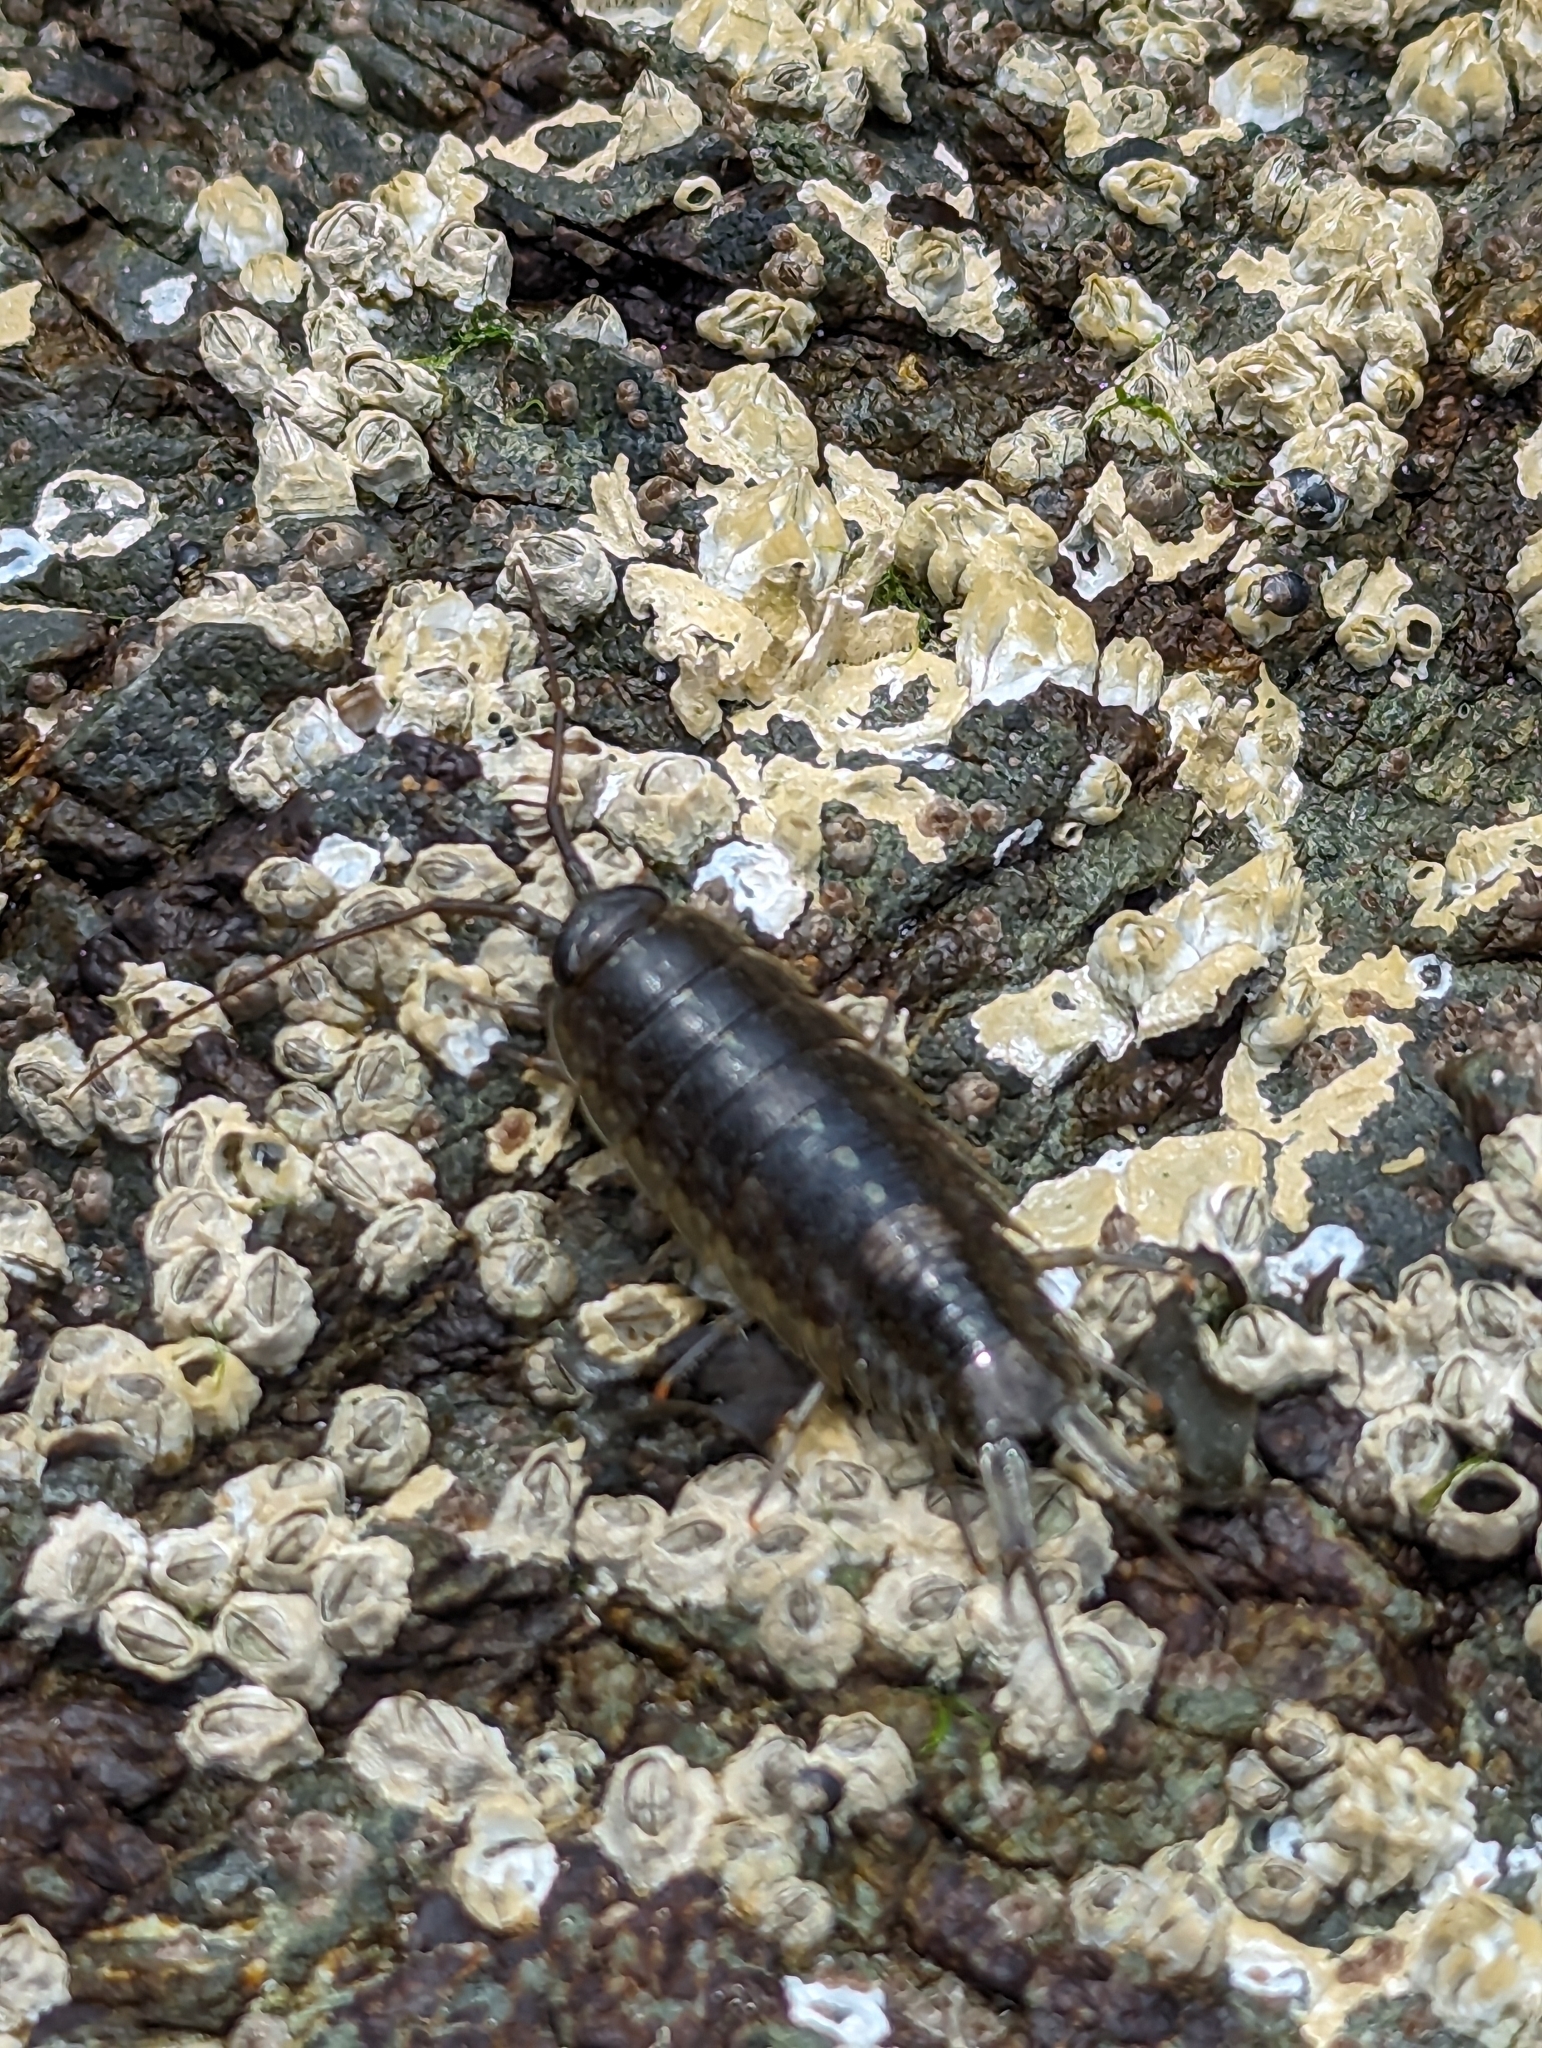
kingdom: Animalia
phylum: Arthropoda
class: Malacostraca
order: Isopoda
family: Ligiidae
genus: Ligia
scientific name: Ligia occidentalis
